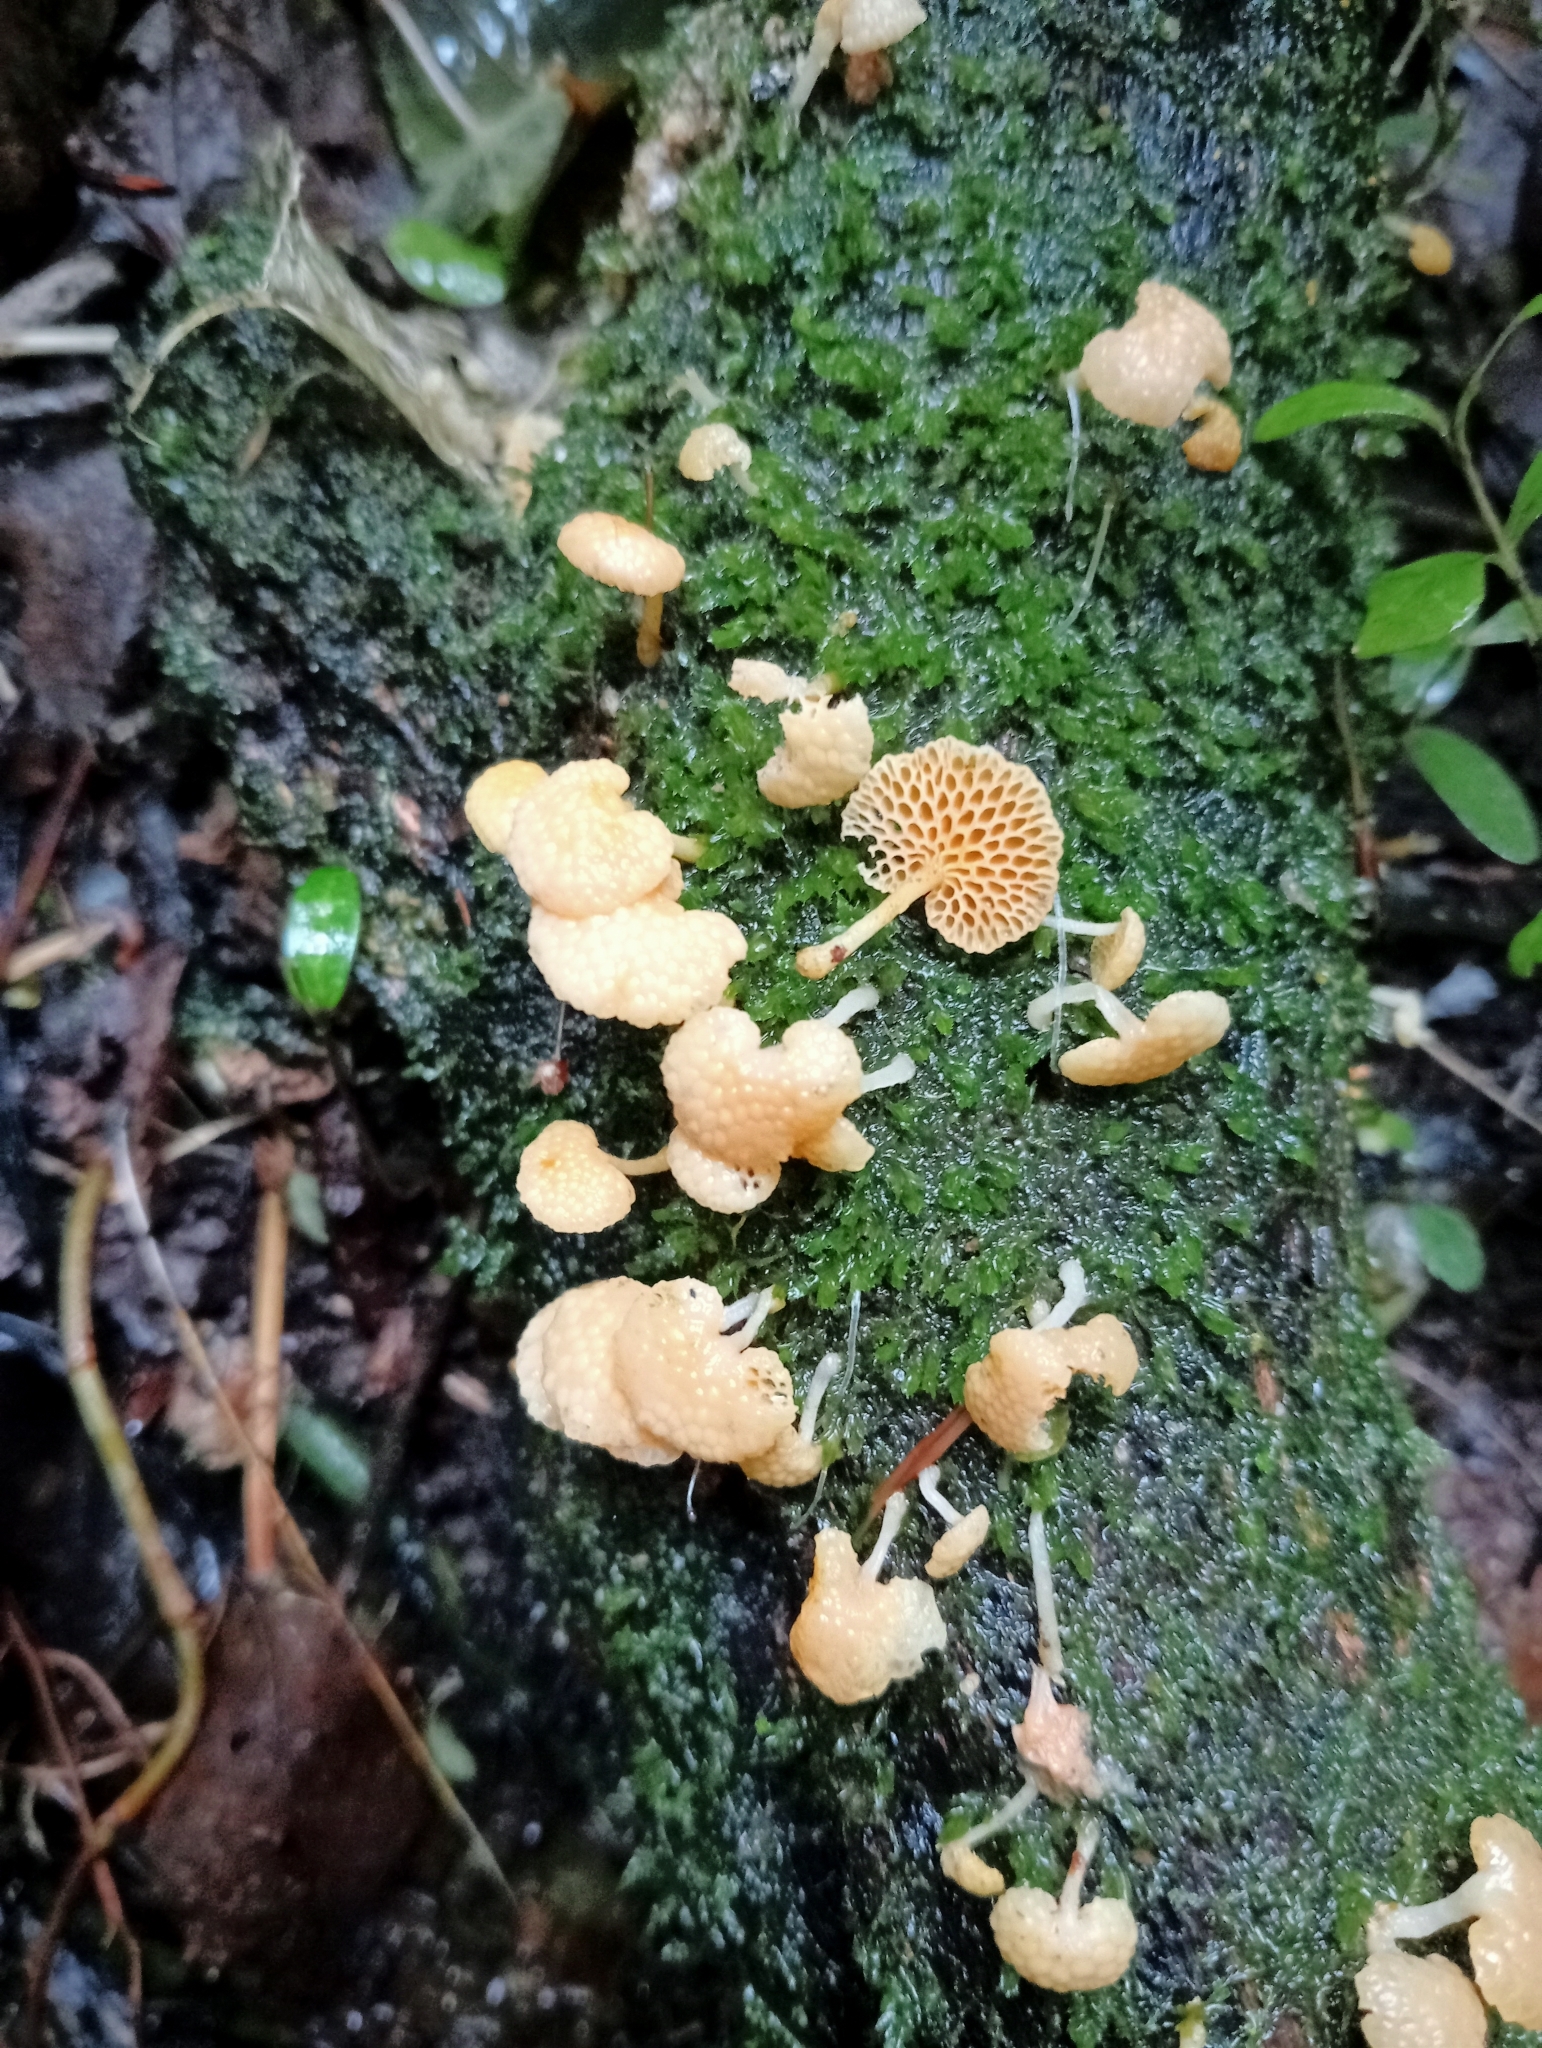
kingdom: Fungi
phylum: Basidiomycota
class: Agaricomycetes
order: Agaricales
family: Mycenaceae
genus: Favolaschia
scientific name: Favolaschia claudopus
